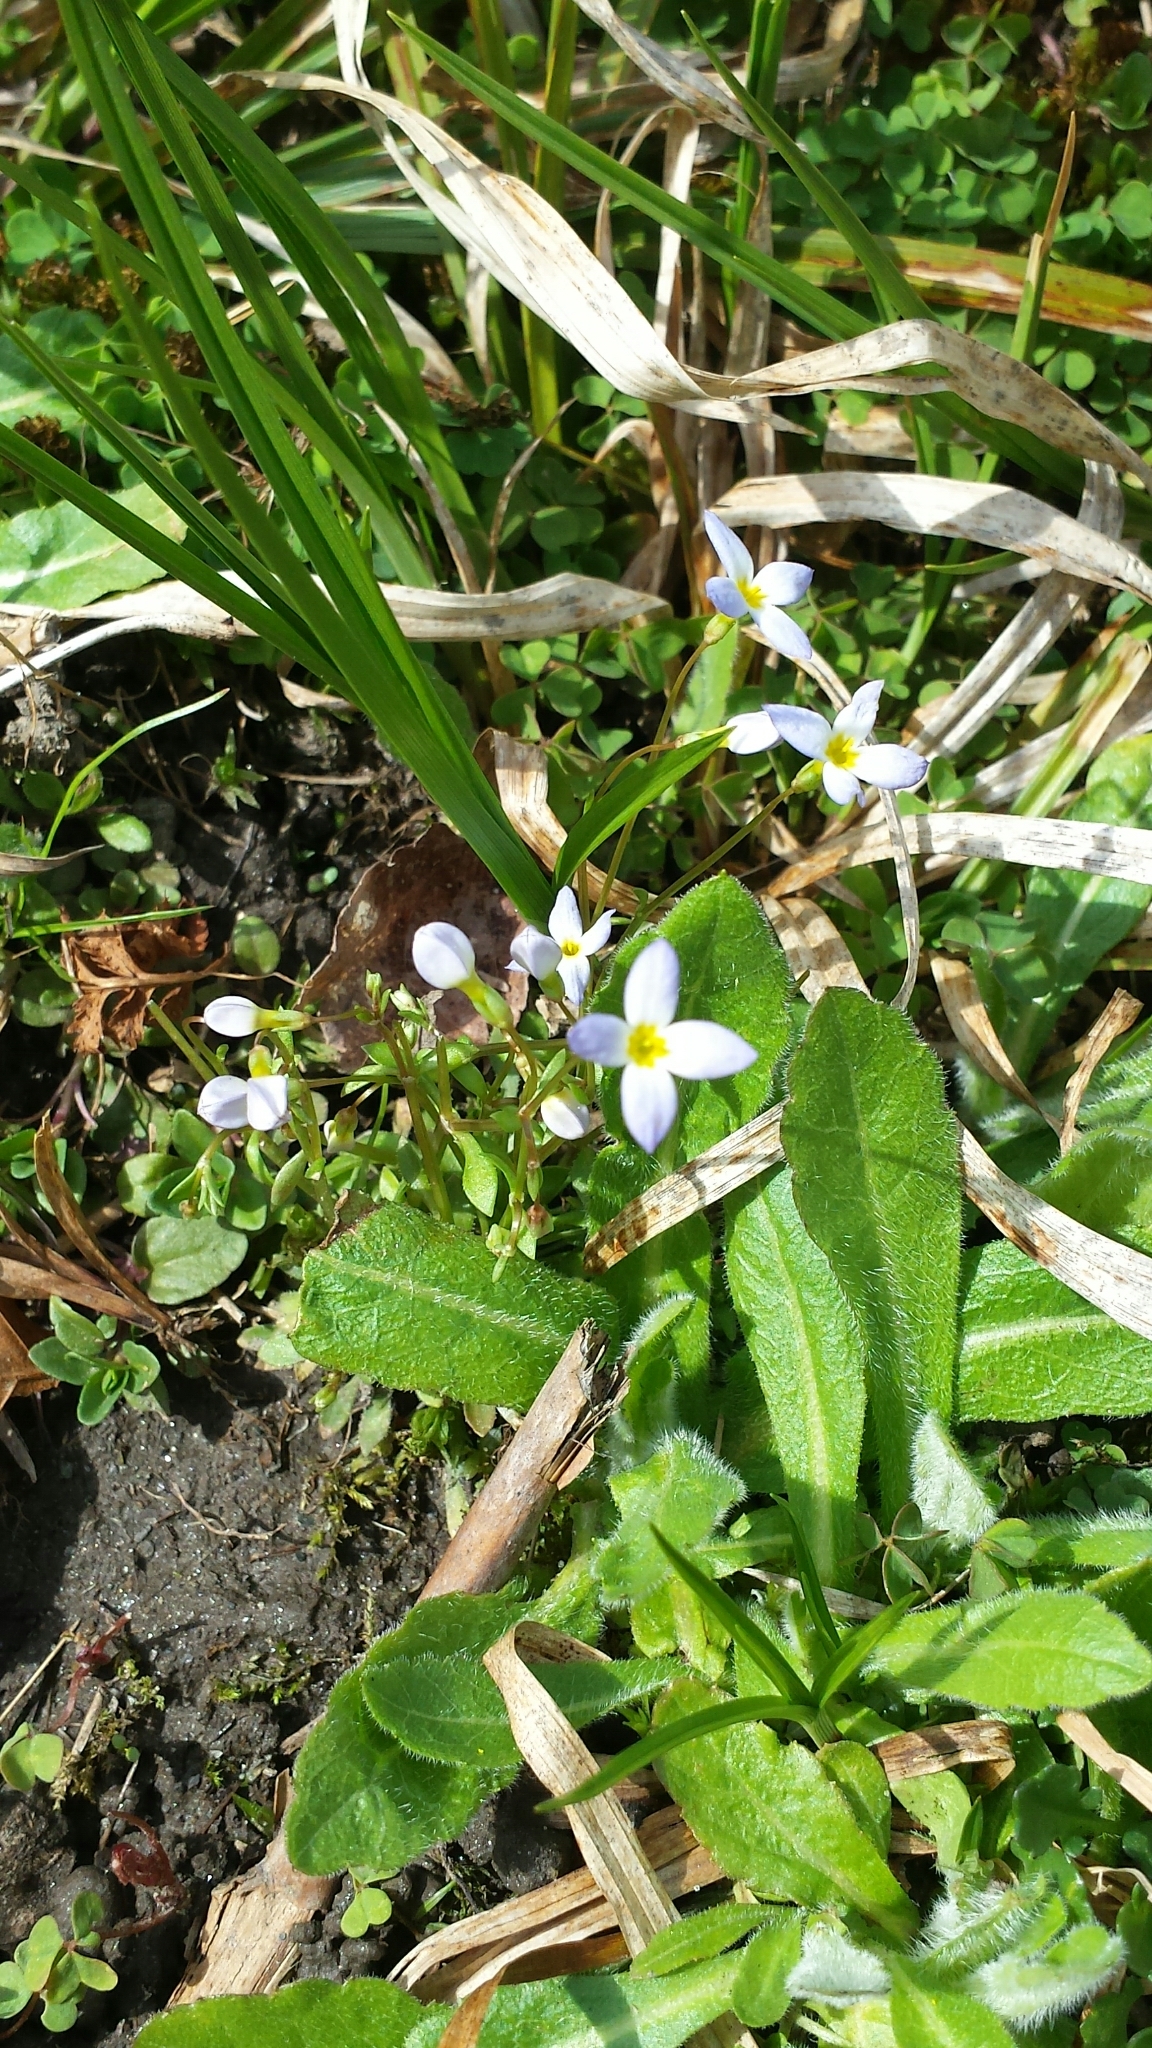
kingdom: Plantae
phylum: Tracheophyta
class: Magnoliopsida
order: Gentianales
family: Rubiaceae
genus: Houstonia
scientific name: Houstonia caerulea
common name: Bluets
